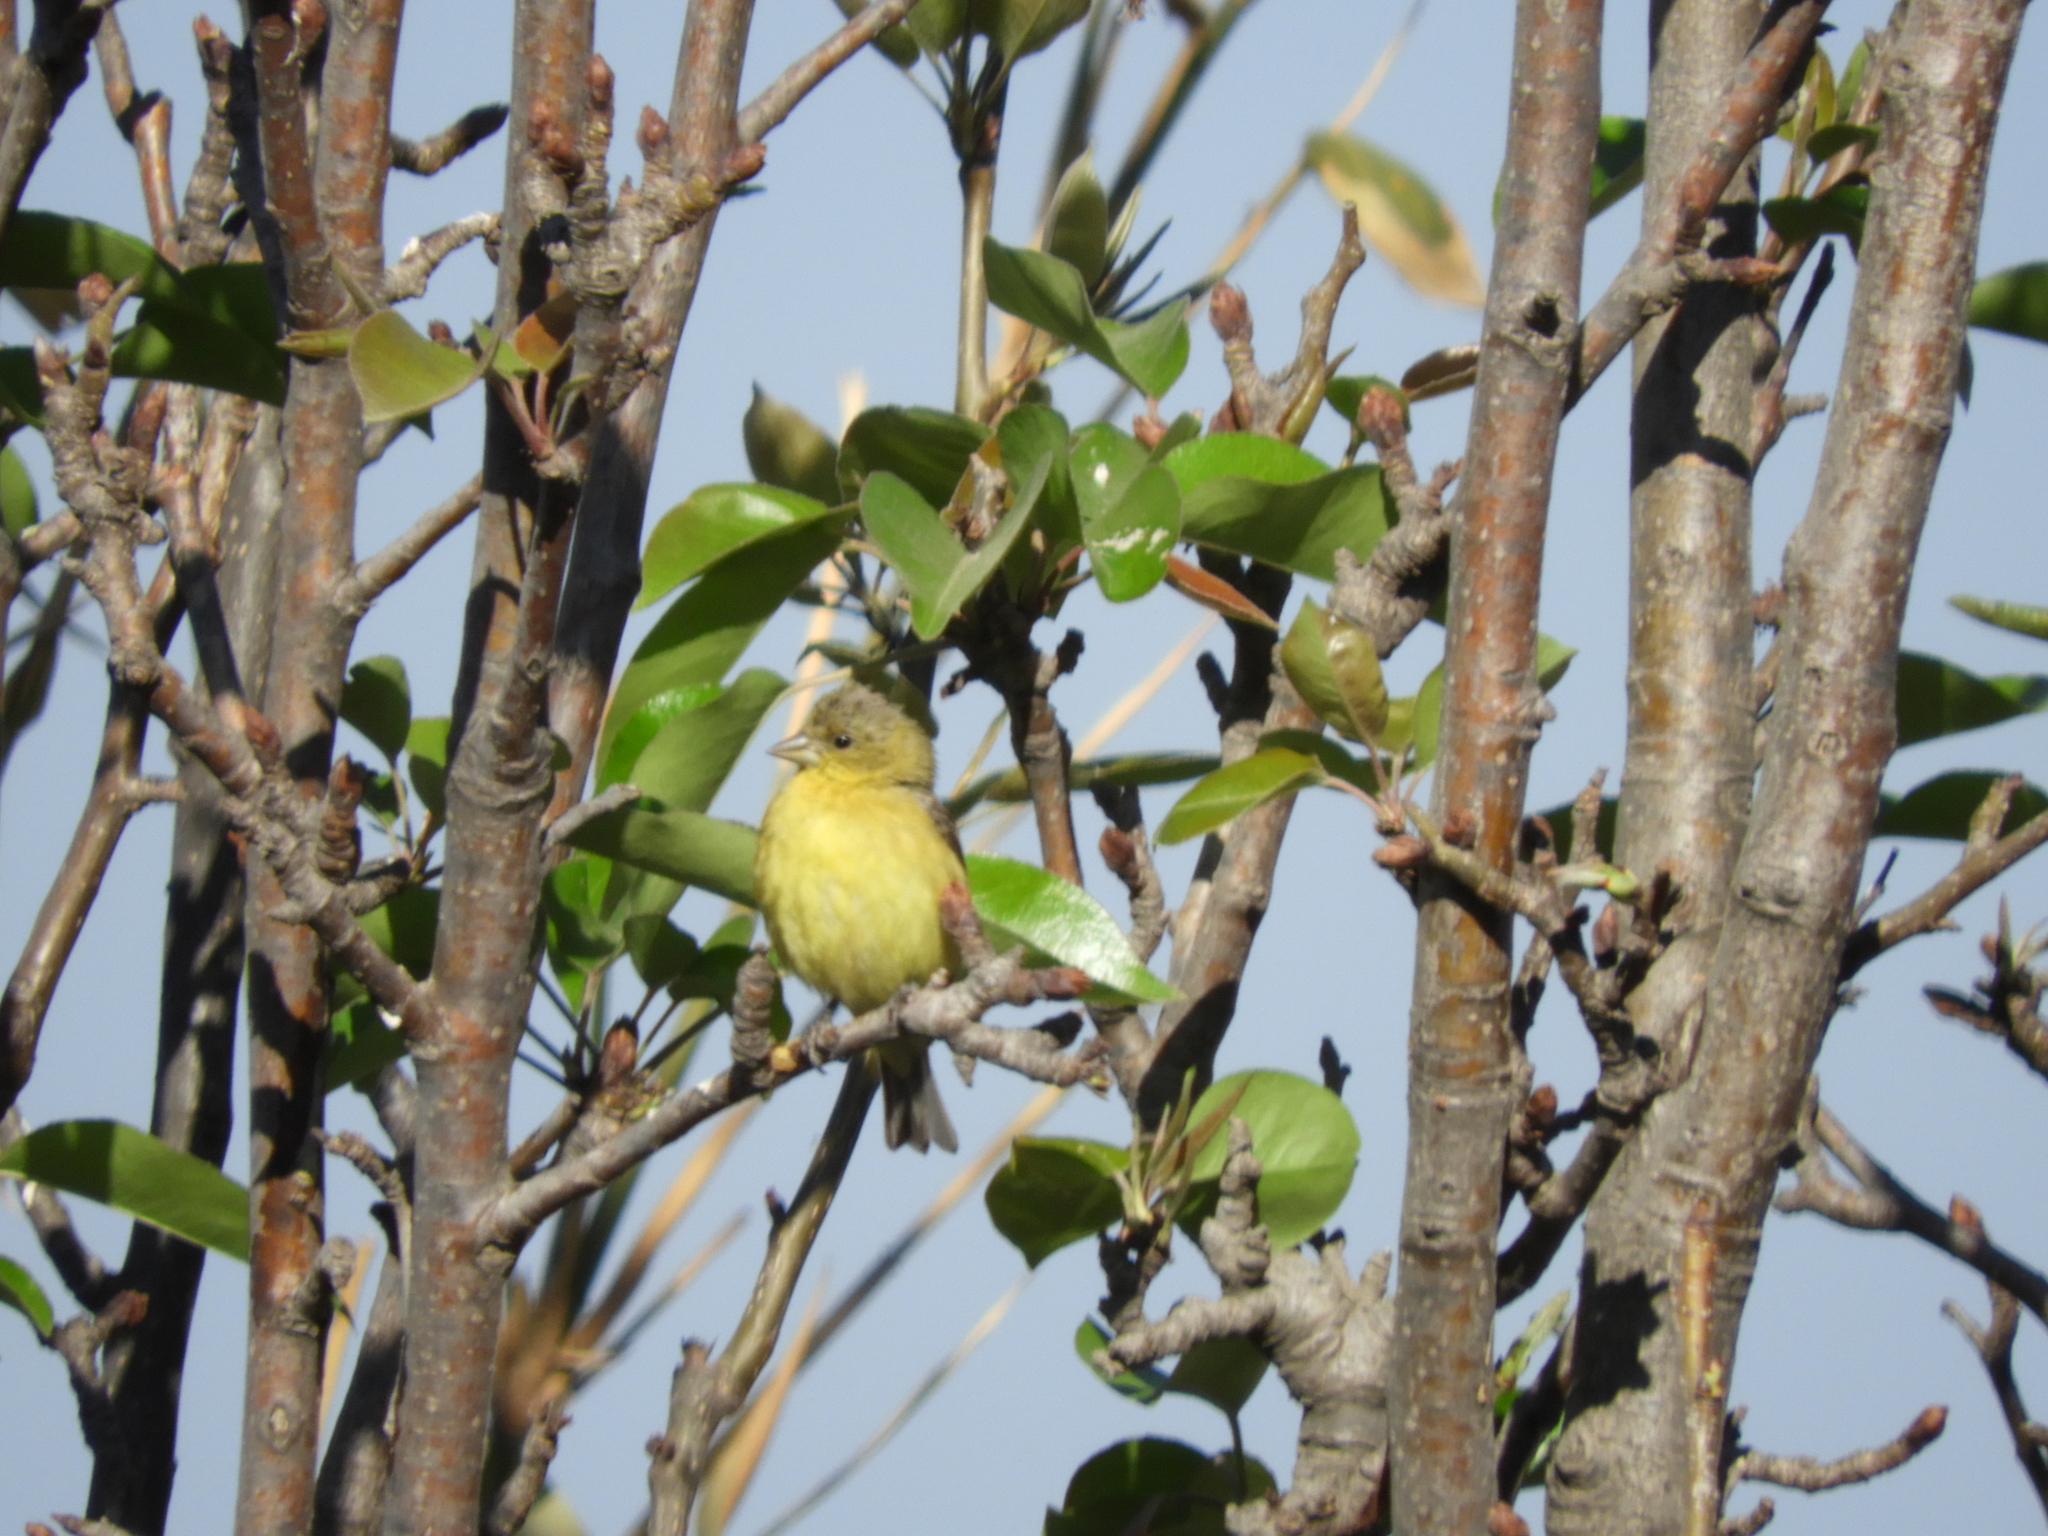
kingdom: Animalia
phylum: Chordata
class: Aves
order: Passeriformes
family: Fringillidae
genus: Spinus
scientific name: Spinus psaltria
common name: Lesser goldfinch
